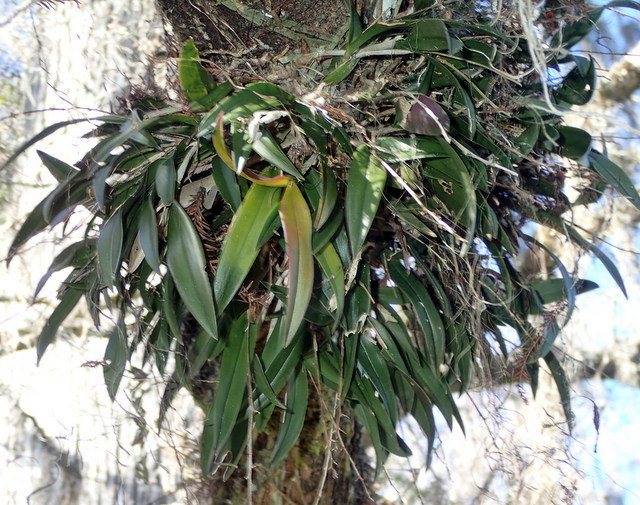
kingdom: Plantae
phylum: Tracheophyta
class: Liliopsida
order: Asparagales
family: Orchidaceae
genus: Epidendrum
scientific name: Epidendrum conopseum
